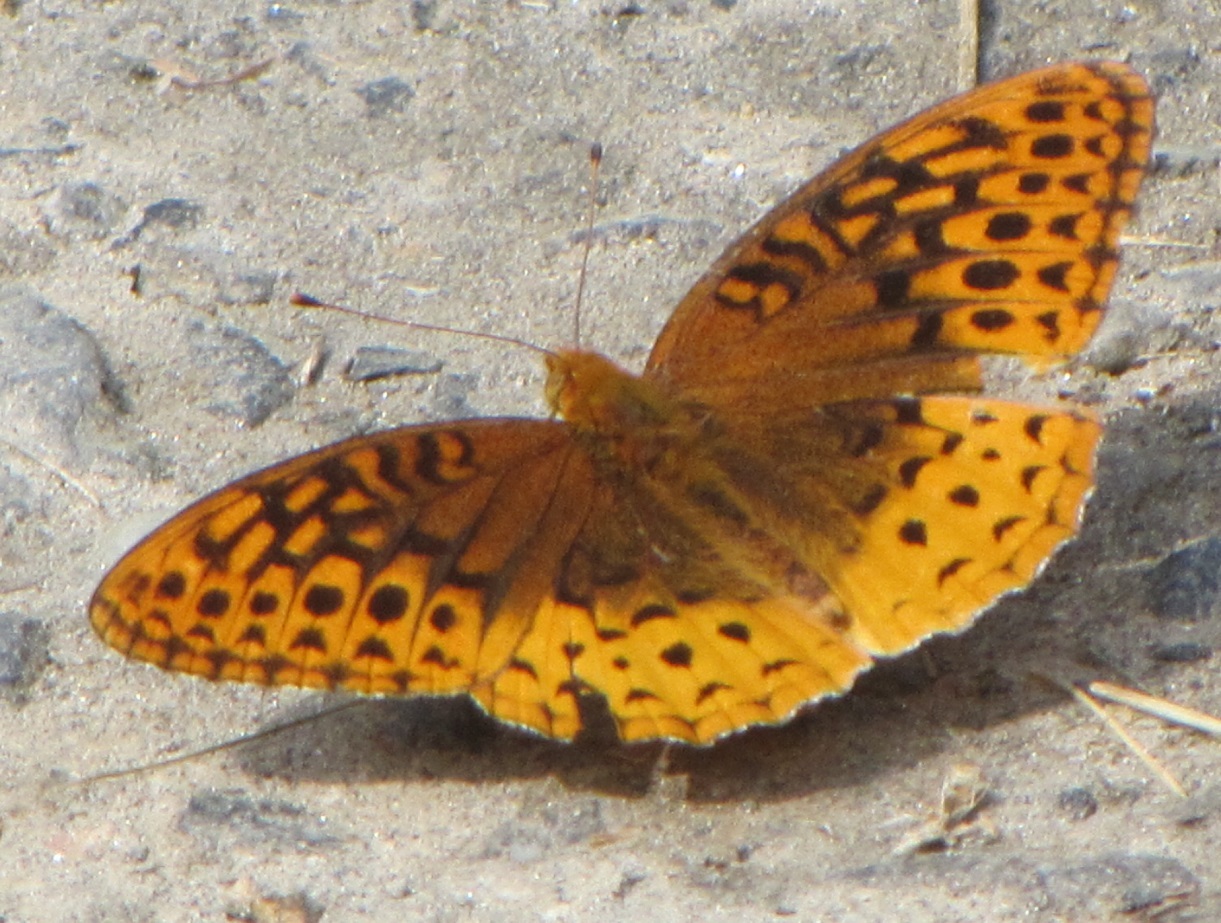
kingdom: Animalia
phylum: Arthropoda
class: Insecta
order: Lepidoptera
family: Nymphalidae
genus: Speyeria
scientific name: Speyeria cybele
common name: Great spangled fritillary
